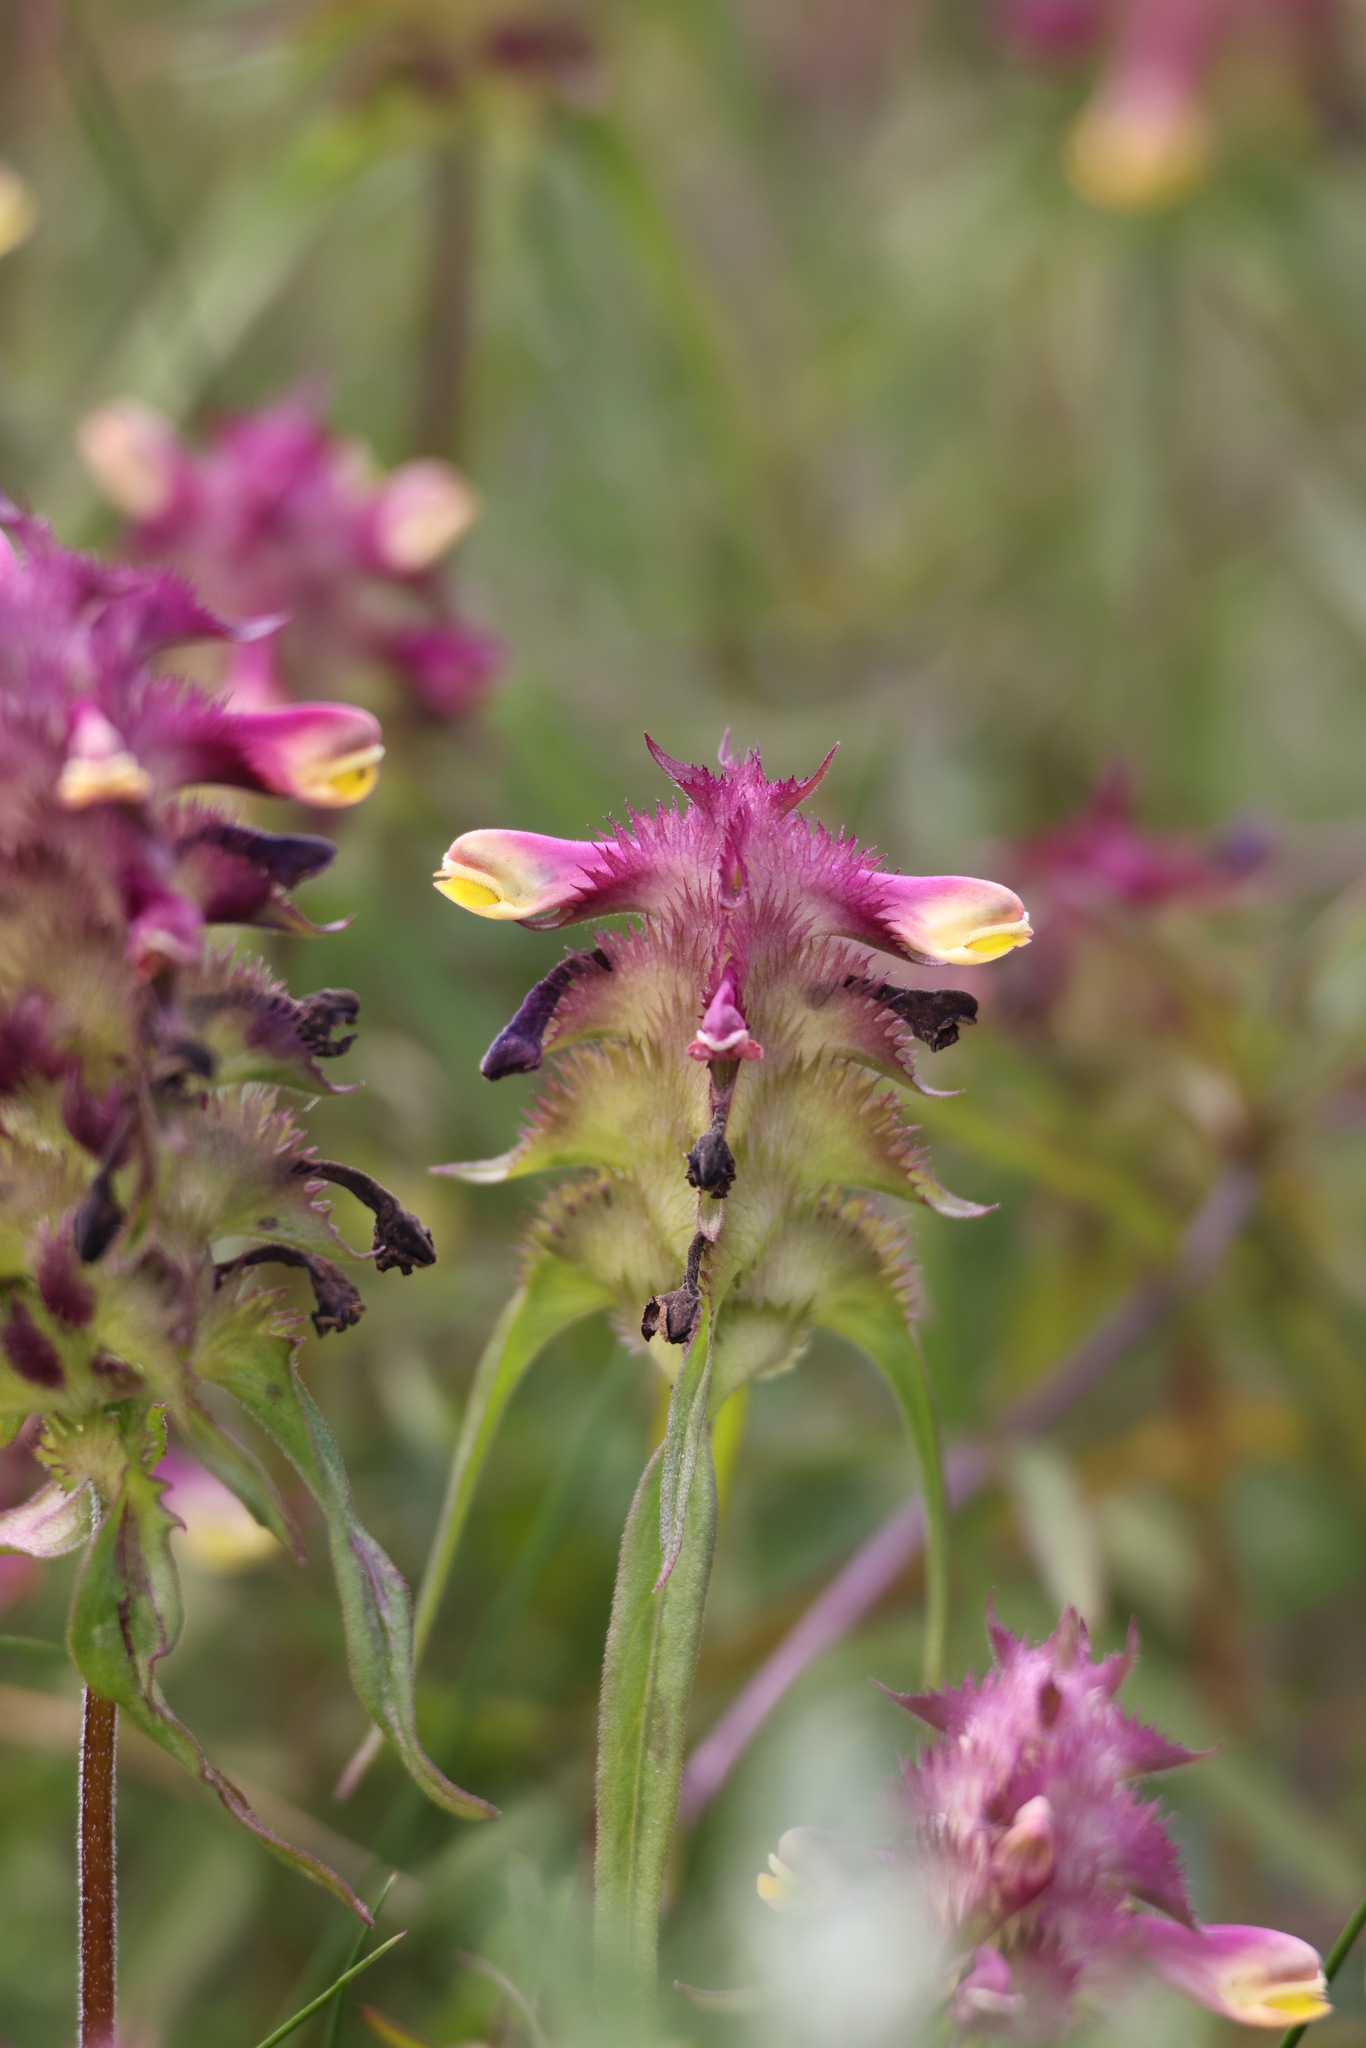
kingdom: Plantae
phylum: Tracheophyta
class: Magnoliopsida
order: Lamiales
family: Orobanchaceae
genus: Melampyrum
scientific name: Melampyrum cristatum
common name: Crested cow-wheat
